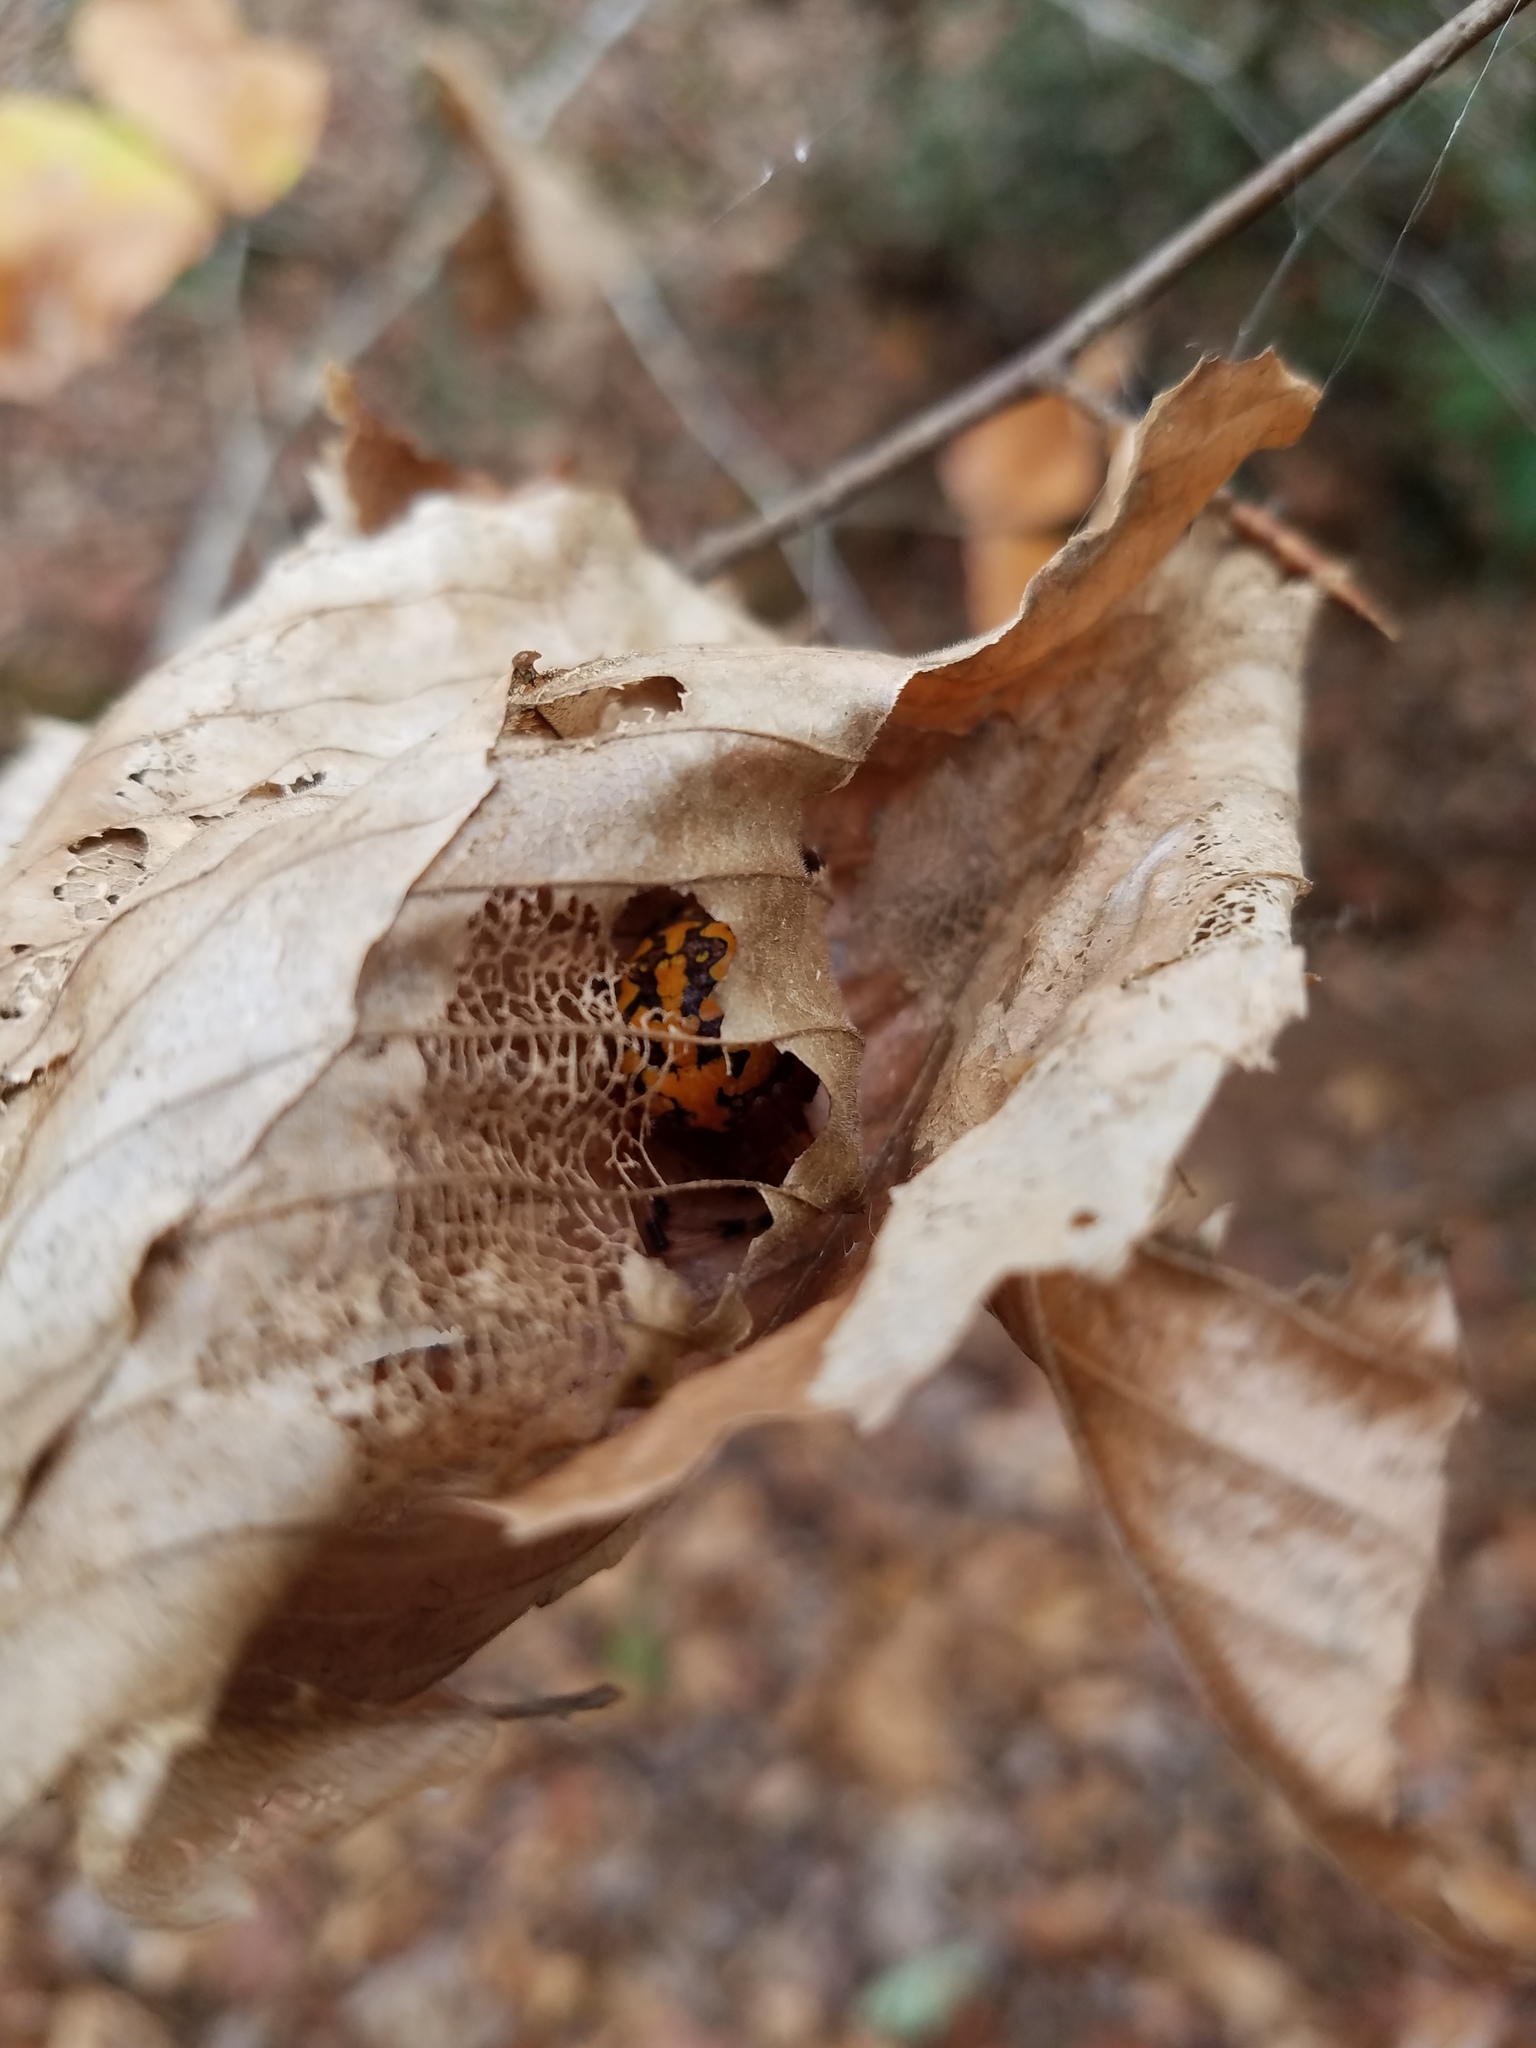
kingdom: Animalia
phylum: Arthropoda
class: Arachnida
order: Araneae
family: Araneidae
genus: Araneus
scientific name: Araneus marmoreus
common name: Marbled orbweaver
